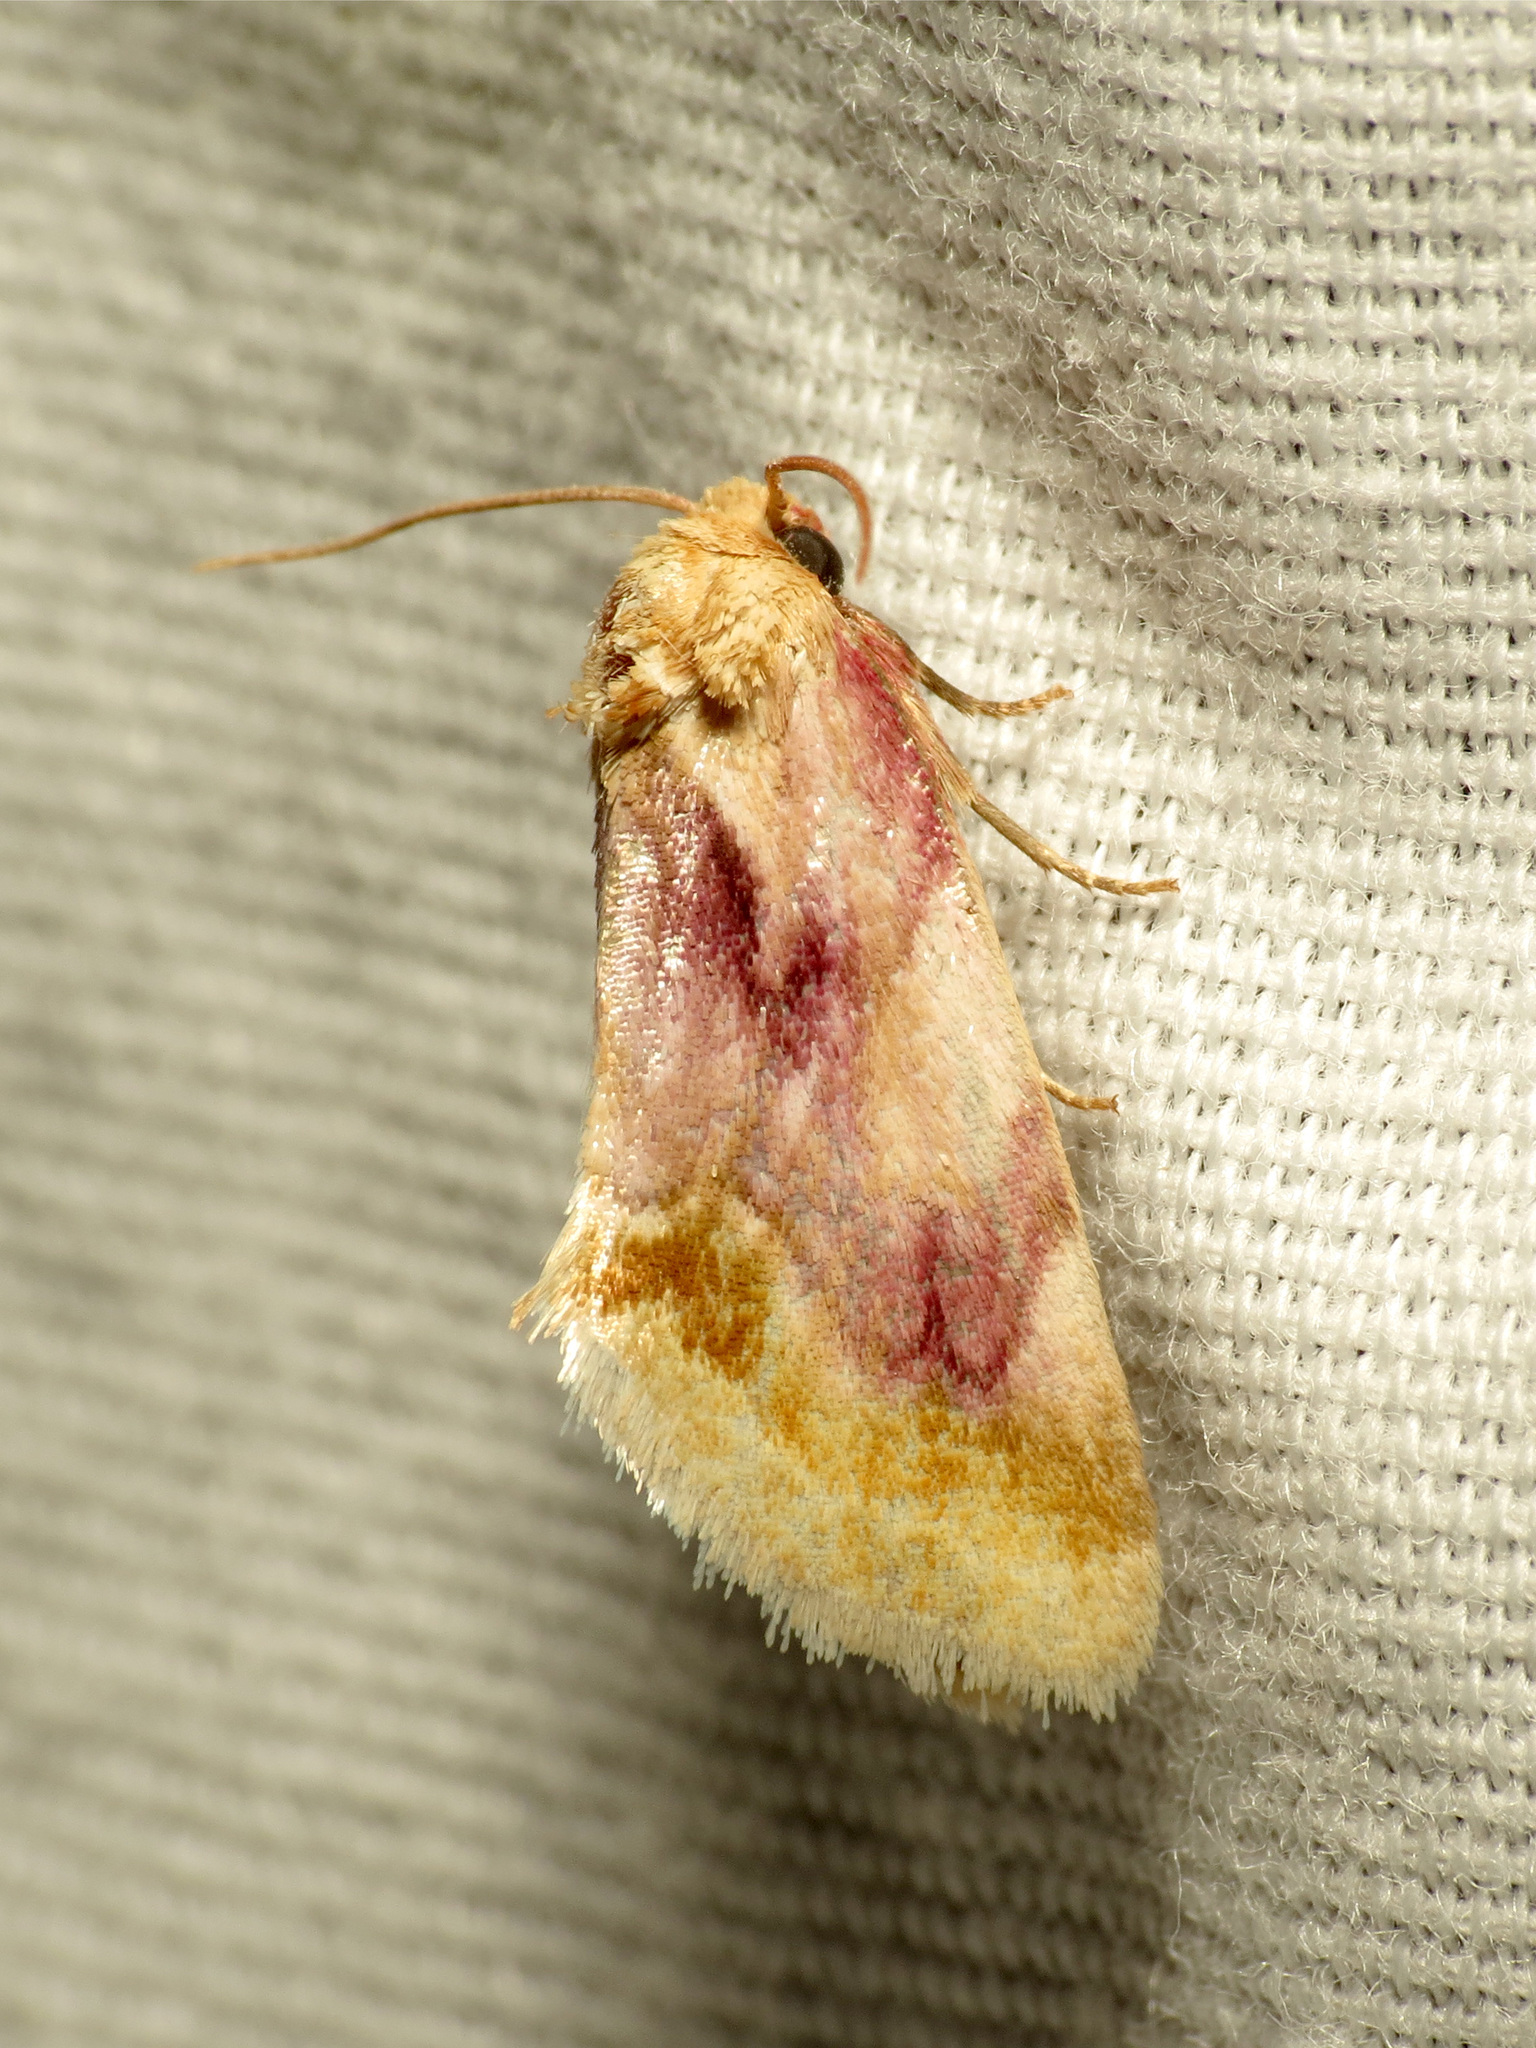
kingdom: Animalia
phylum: Arthropoda
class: Insecta
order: Lepidoptera
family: Noctuidae
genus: Chamaeclea
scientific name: Chamaeclea pernana
